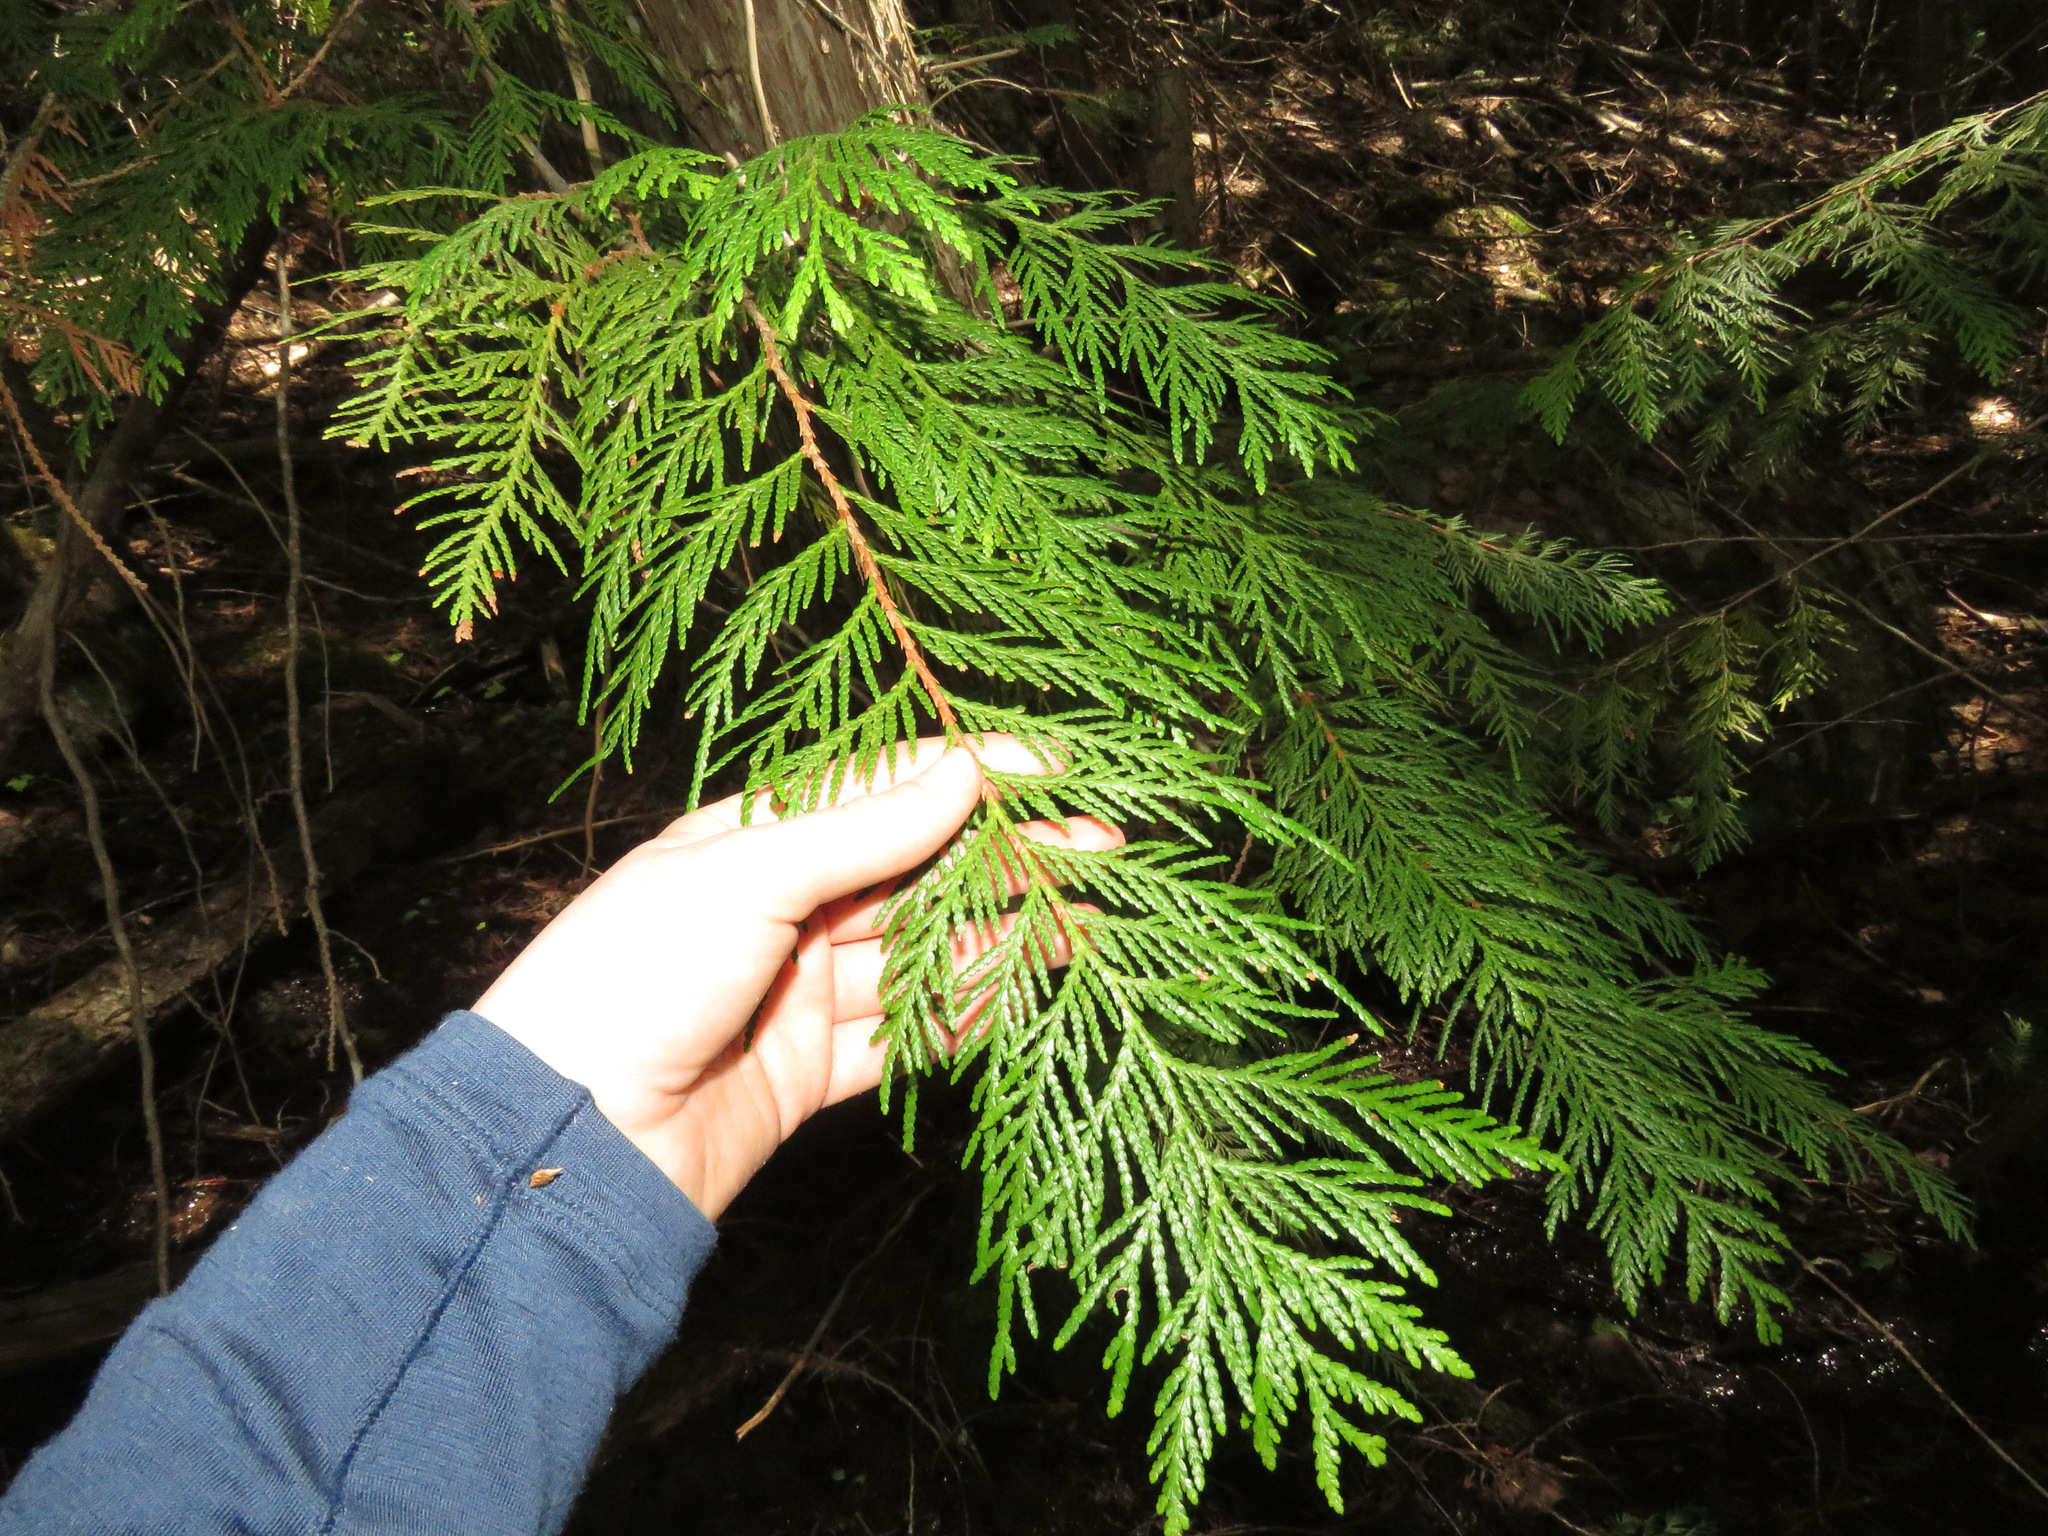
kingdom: Plantae
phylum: Tracheophyta
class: Pinopsida
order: Pinales
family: Cupressaceae
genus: Thuja
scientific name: Thuja plicata
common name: Western red-cedar
